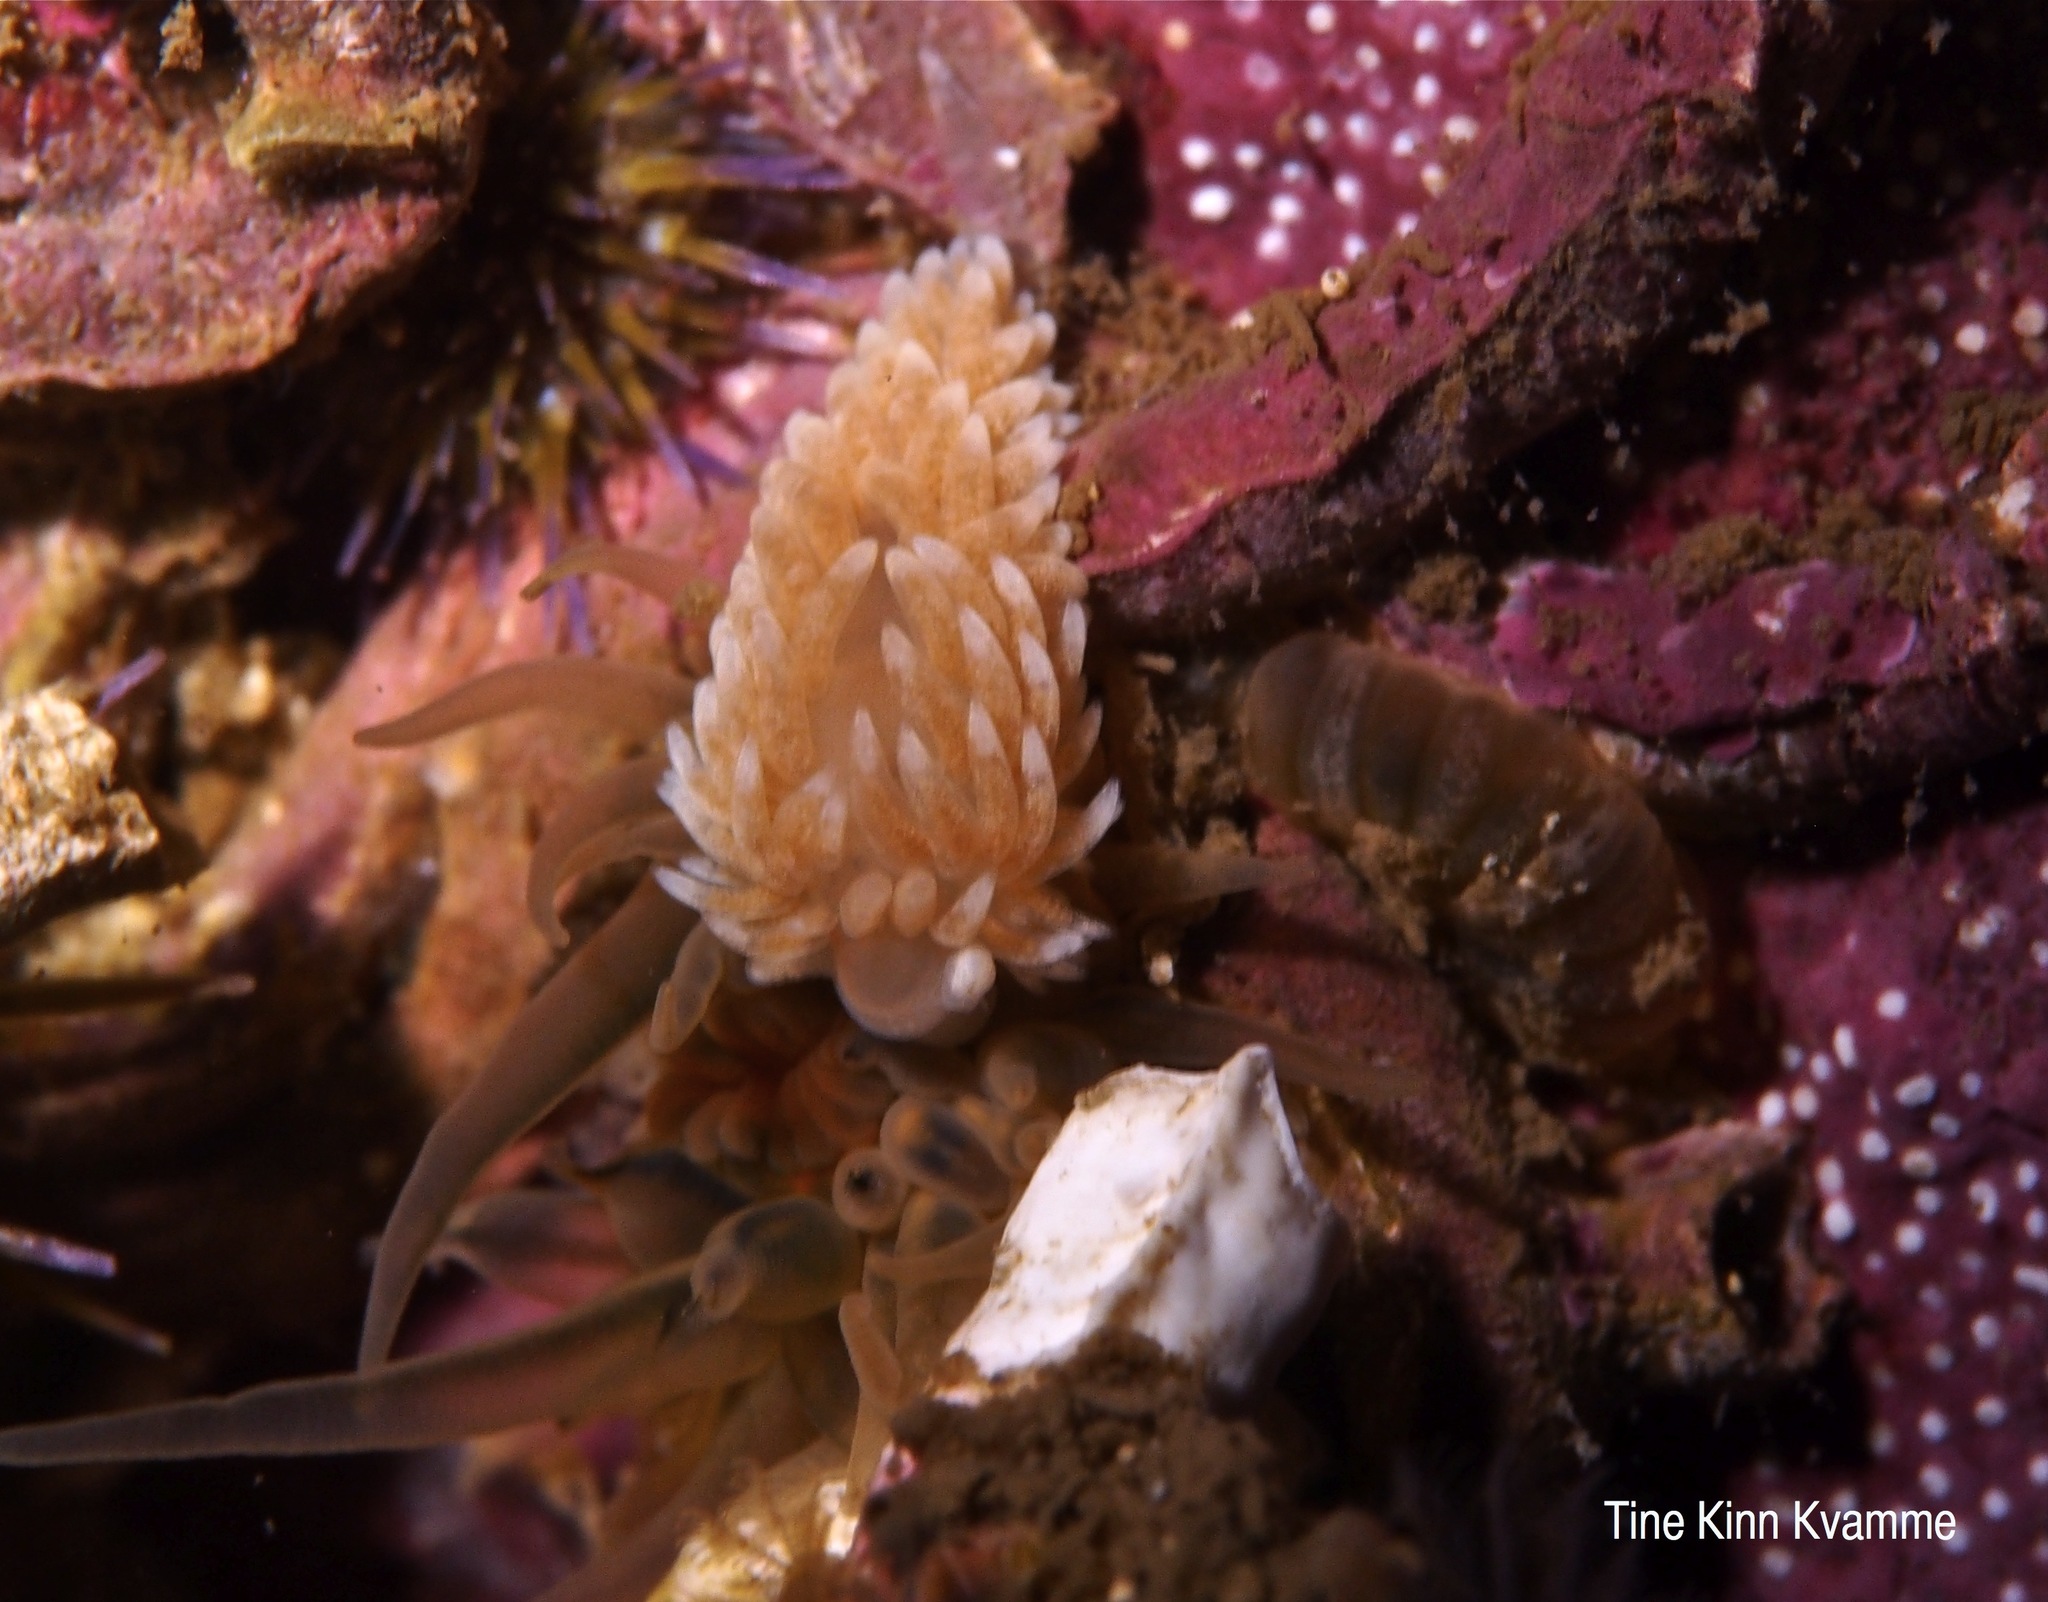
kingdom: Animalia
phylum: Mollusca
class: Gastropoda
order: Nudibranchia
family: Aeolidiidae
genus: Aeolidiella
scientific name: Aeolidiella glauca
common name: Orange-brown aeolid
